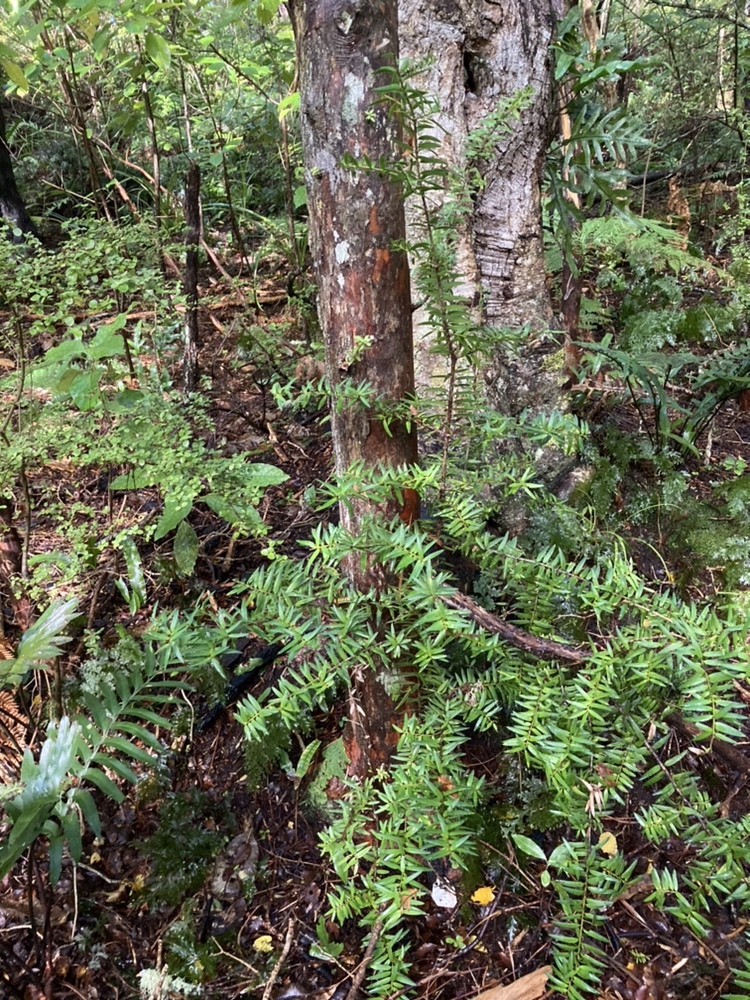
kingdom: Plantae
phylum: Tracheophyta
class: Pinopsida
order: Pinales
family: Podocarpaceae
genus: Podocarpus
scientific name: Podocarpus laetus
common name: Hall's totara
